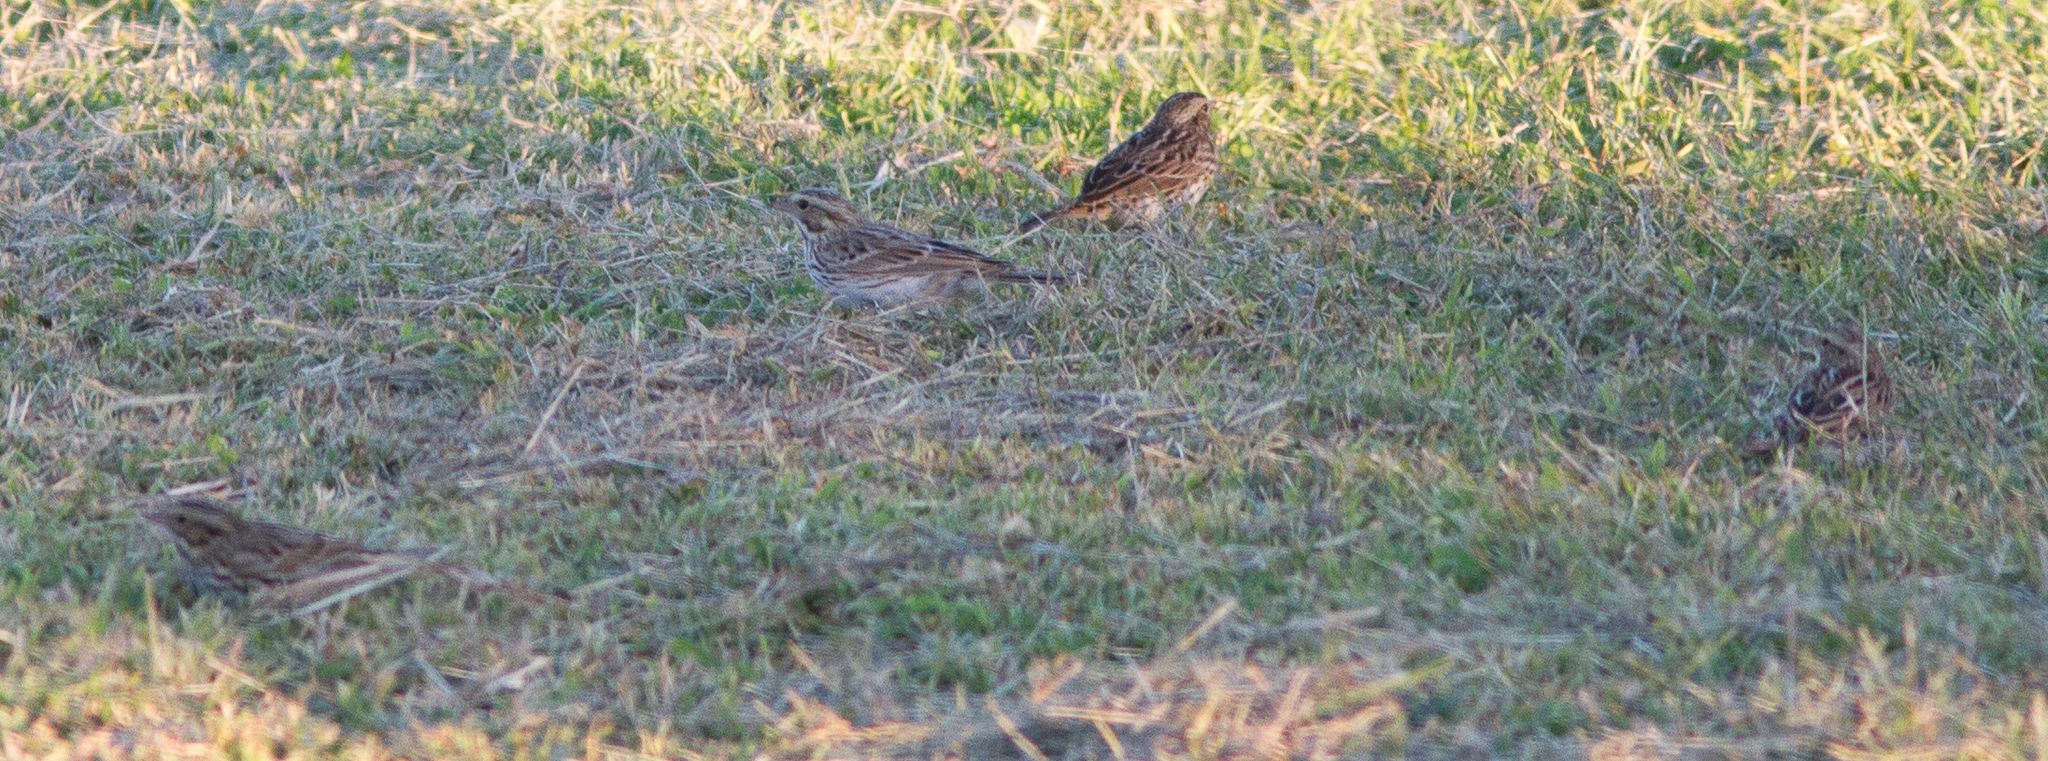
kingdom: Animalia
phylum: Chordata
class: Aves
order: Passeriformes
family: Passerellidae
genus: Passerculus
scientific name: Passerculus sandwichensis
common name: Savannah sparrow
